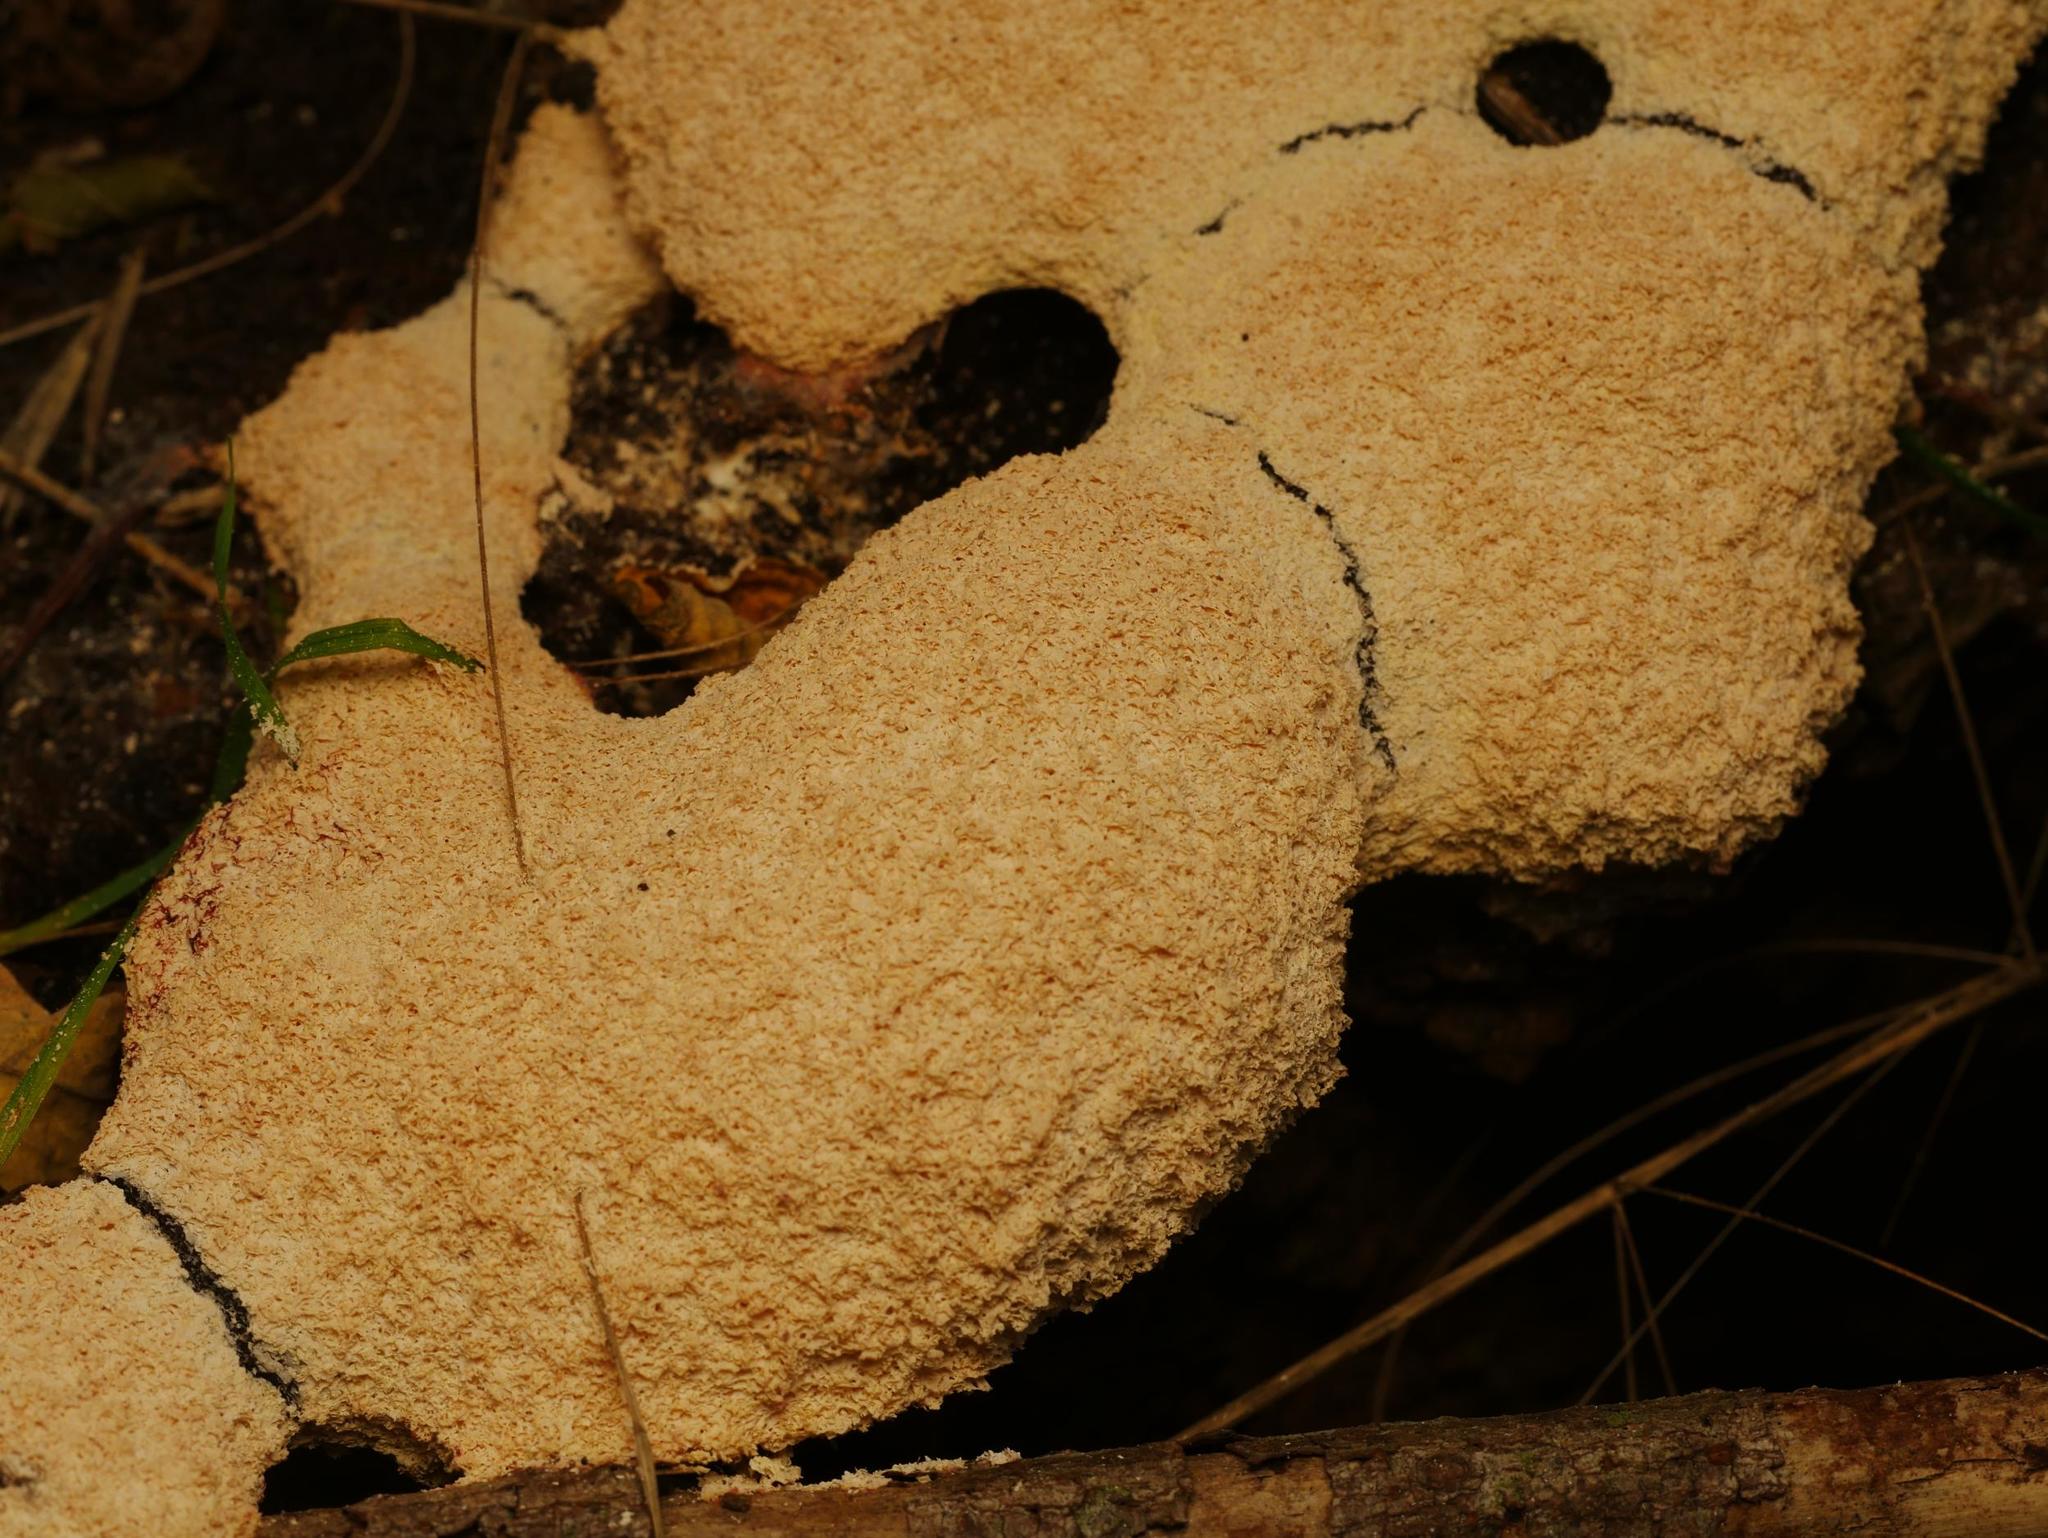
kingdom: Protozoa
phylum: Mycetozoa
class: Myxomycetes
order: Physarales
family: Physaraceae
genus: Fuligo
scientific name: Fuligo septica
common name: Dog vomit slime mold
